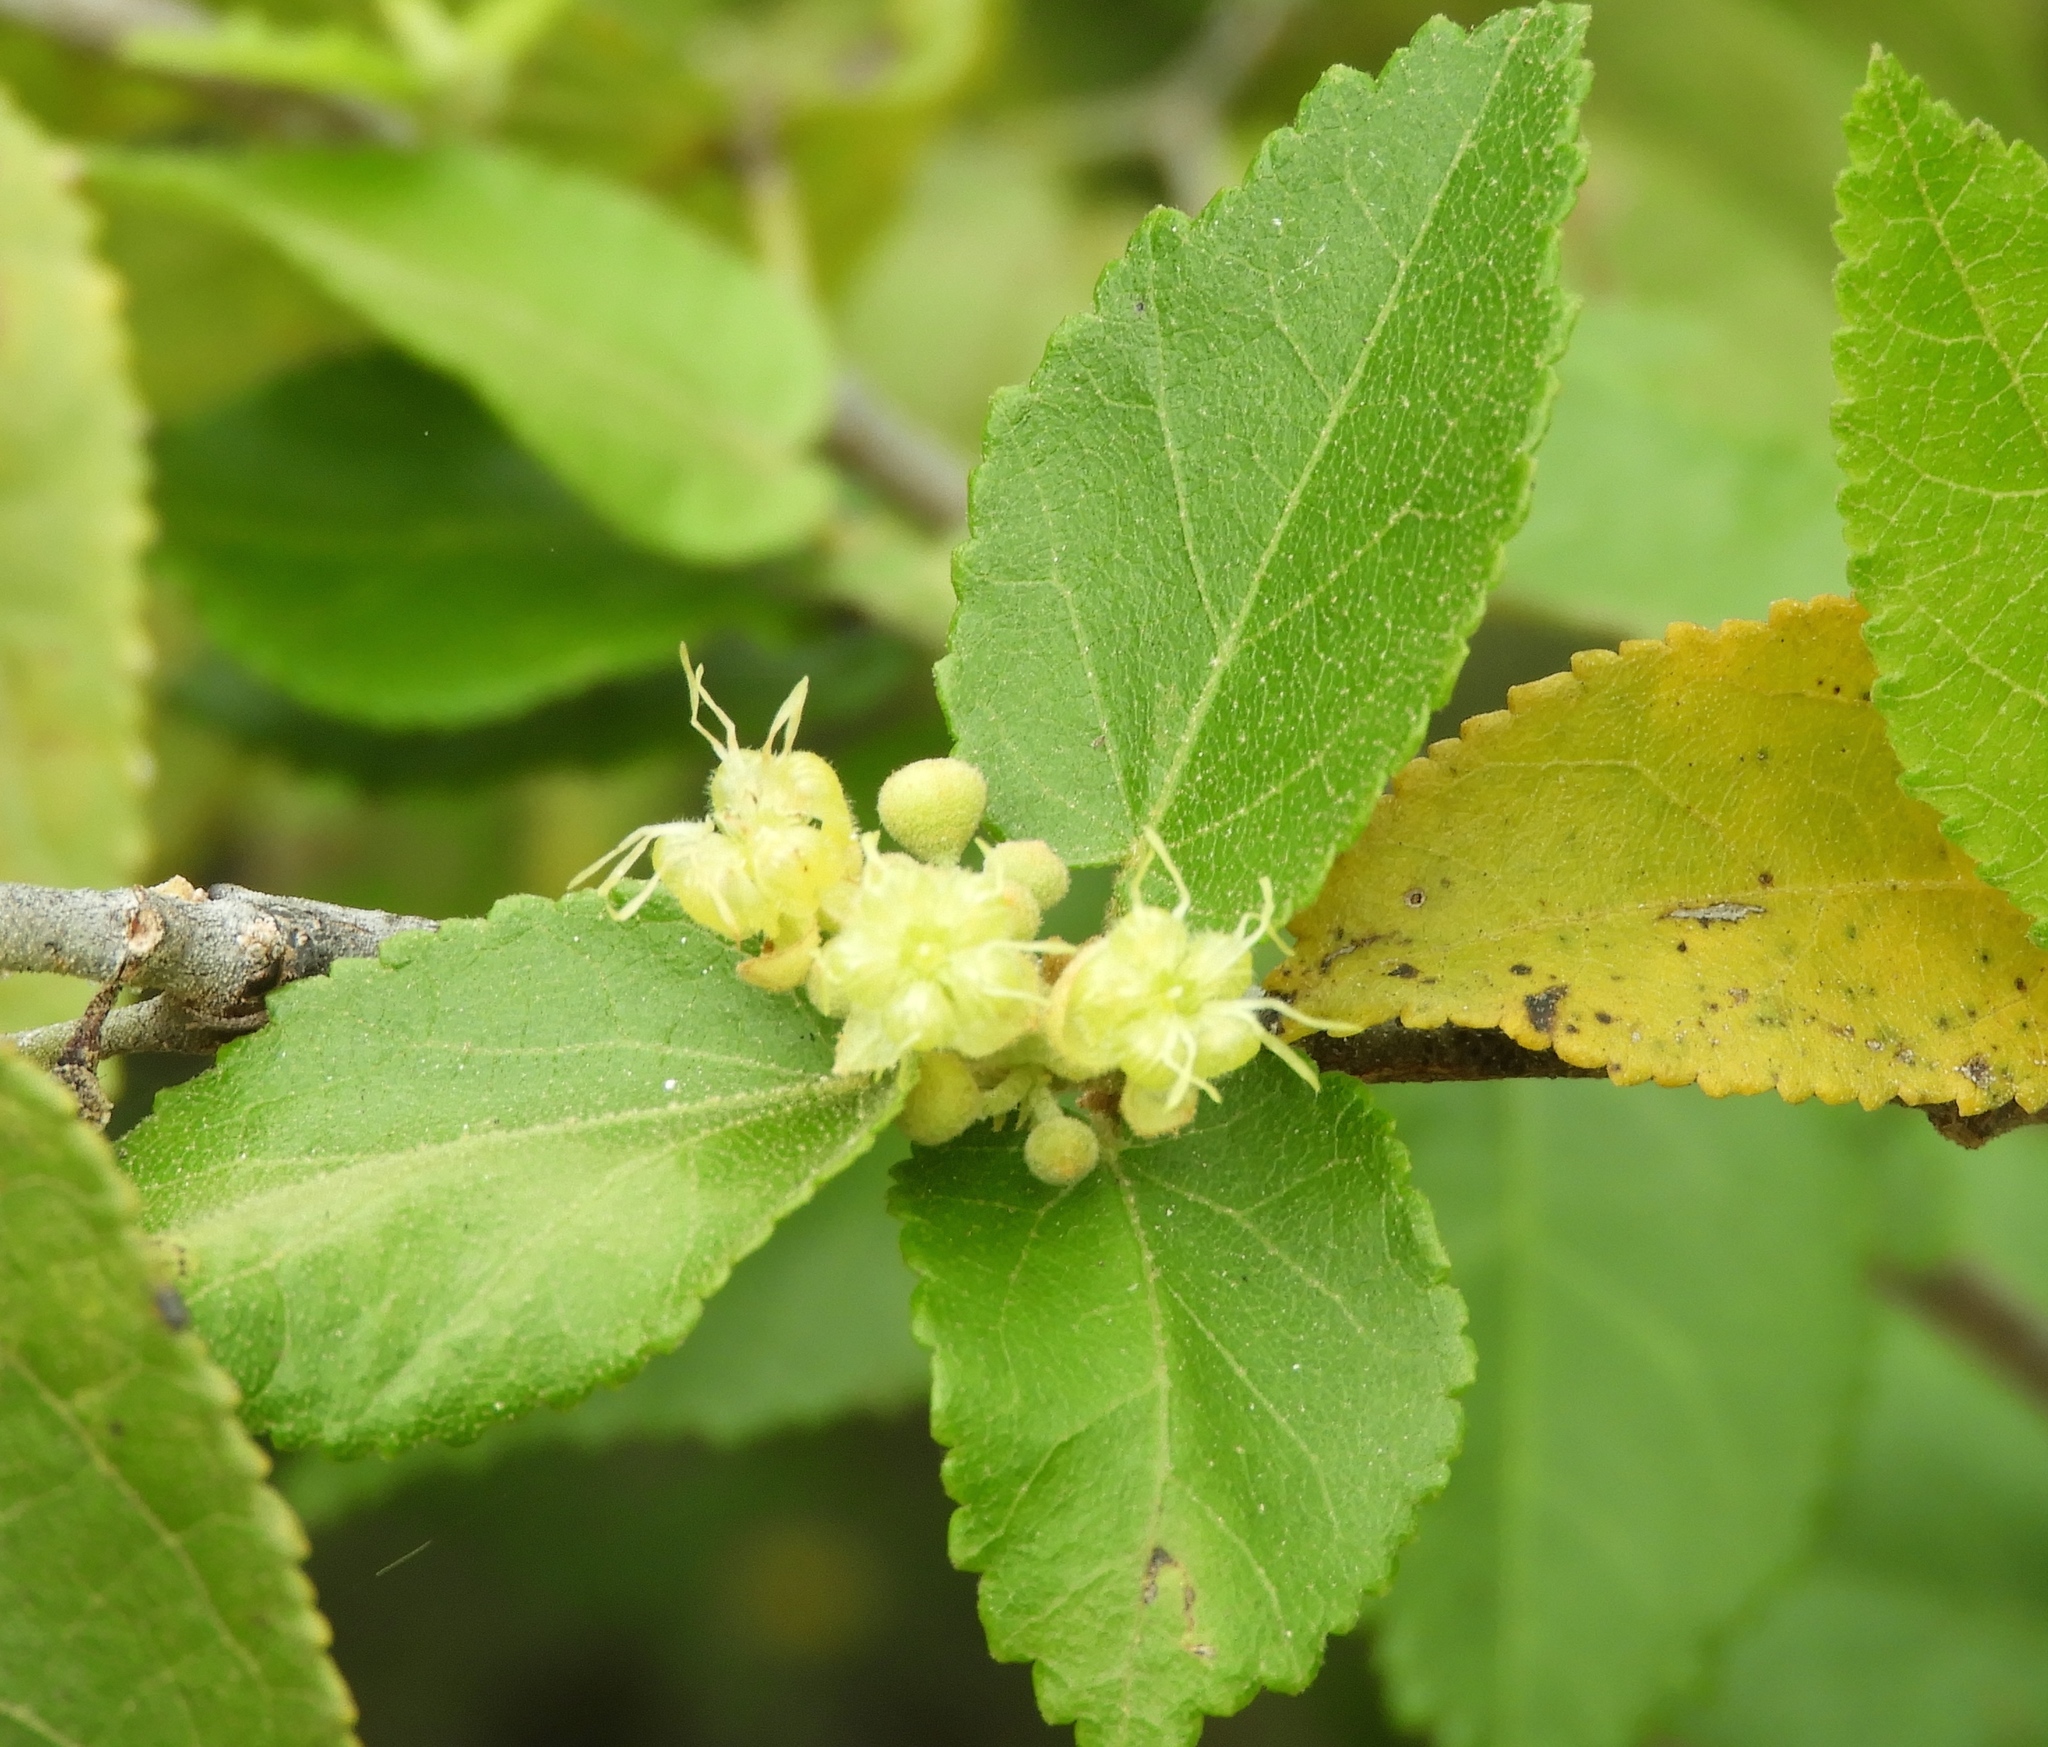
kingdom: Plantae
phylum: Tracheophyta
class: Magnoliopsida
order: Malvales
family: Malvaceae
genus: Guazuma
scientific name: Guazuma ulmifolia
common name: Bastard-cedar
